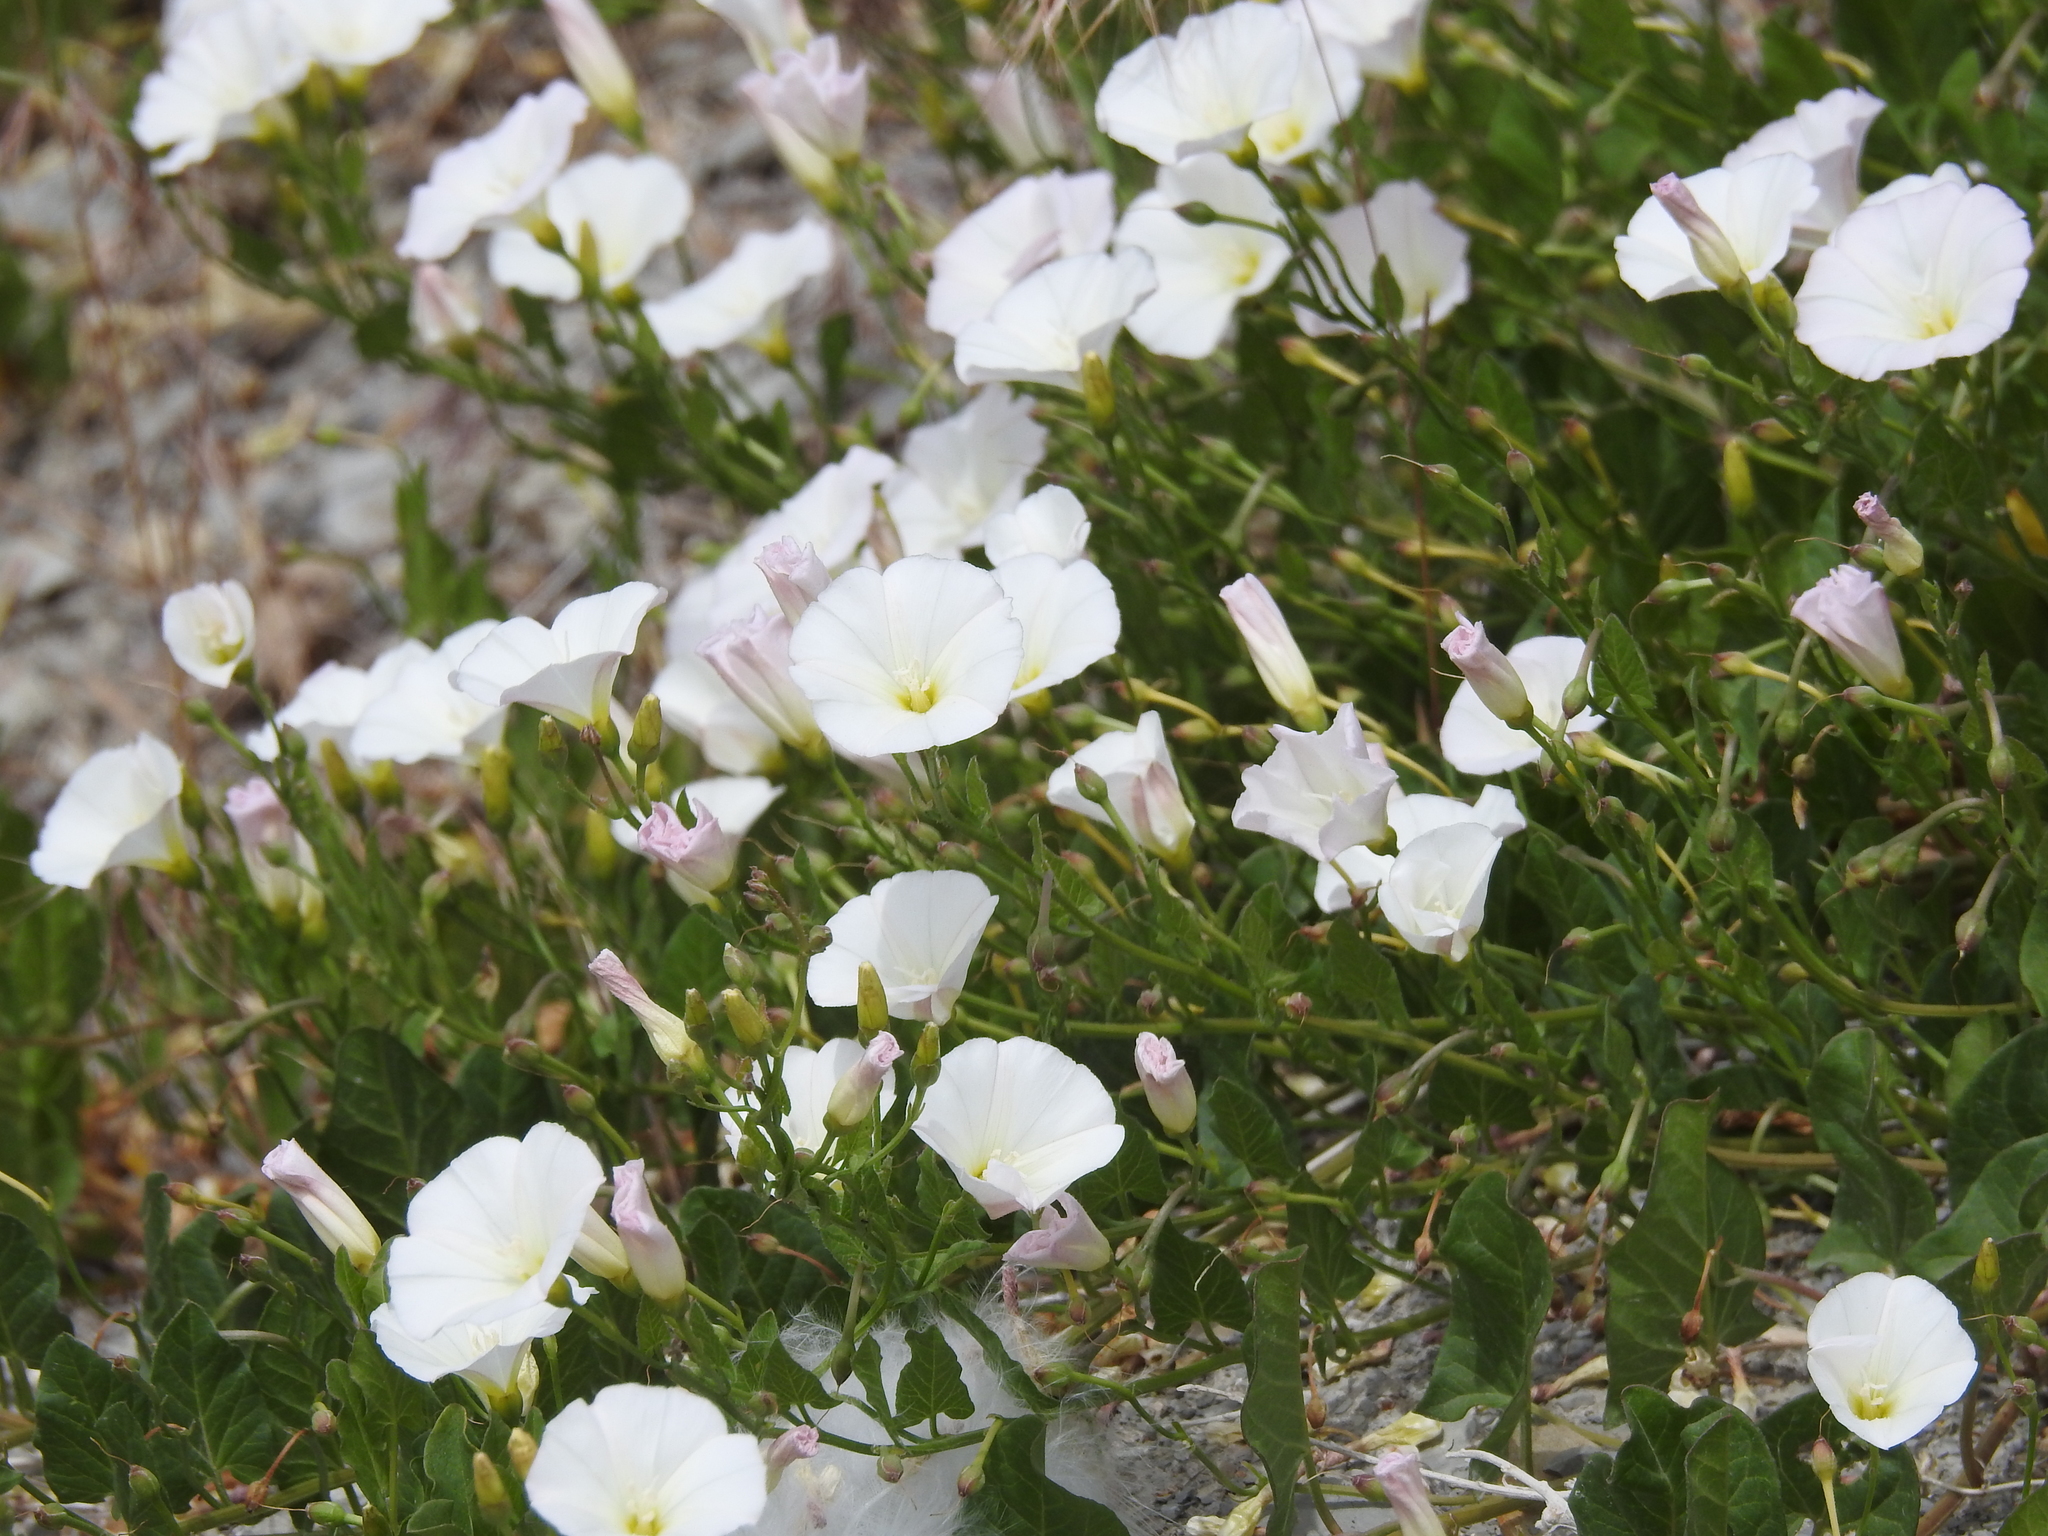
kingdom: Plantae
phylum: Tracheophyta
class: Magnoliopsida
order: Solanales
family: Convolvulaceae
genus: Convolvulus
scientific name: Convolvulus arvensis
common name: Field bindweed
